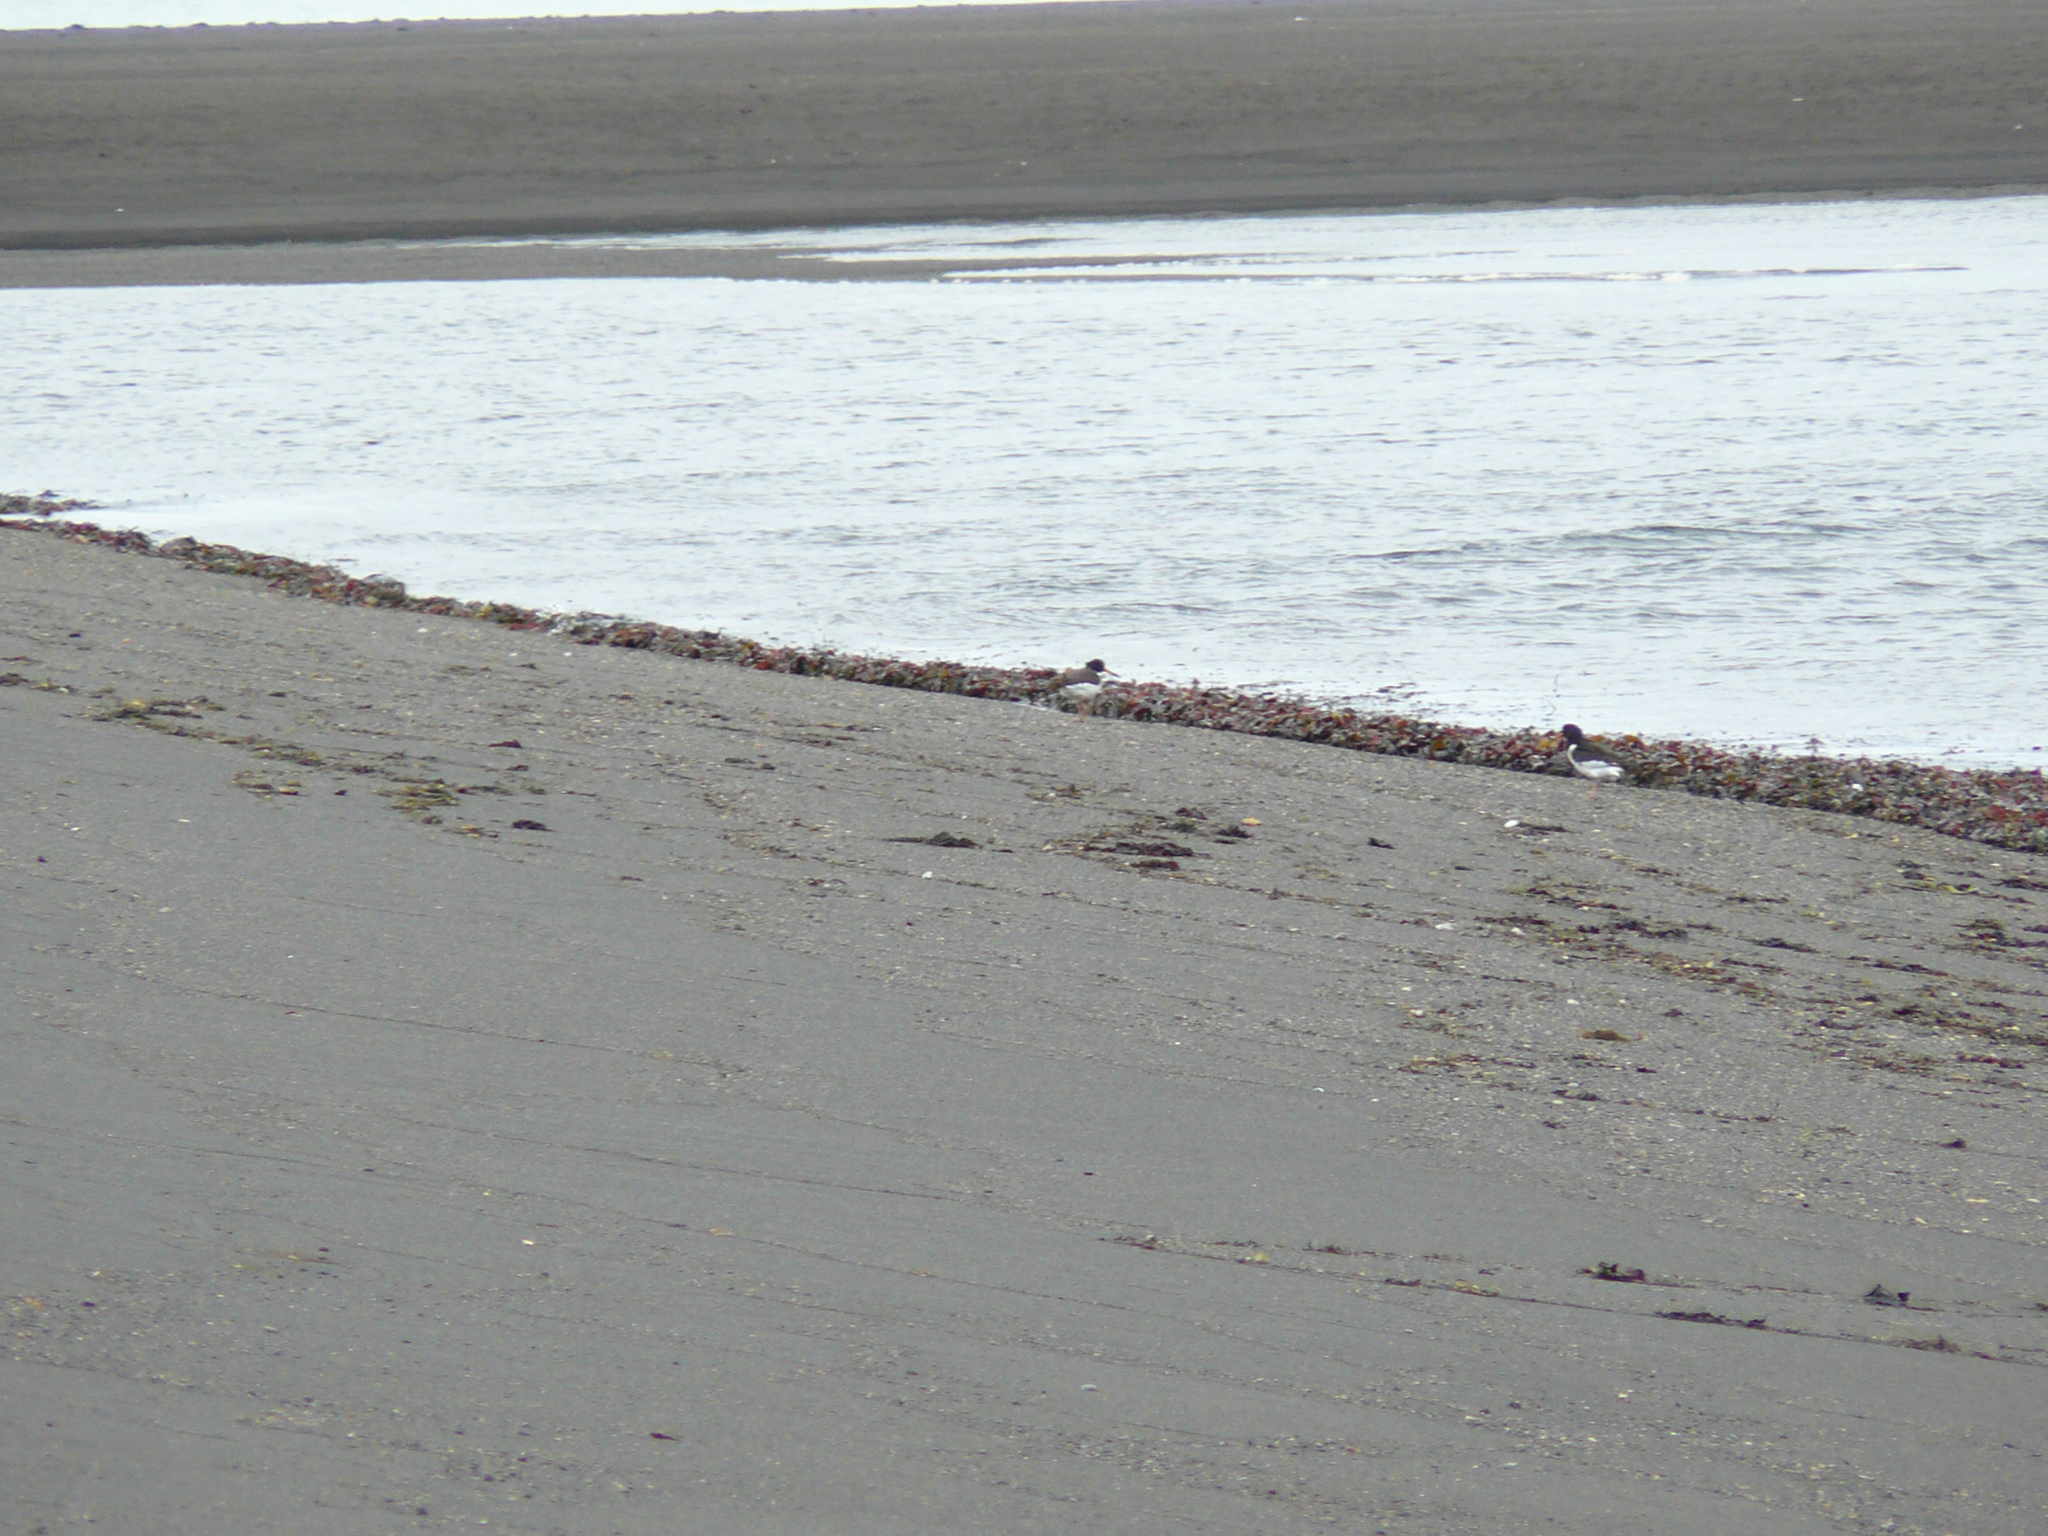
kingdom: Animalia
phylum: Chordata
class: Aves
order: Charadriiformes
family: Haematopodidae
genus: Haematopus
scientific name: Haematopus ostralegus
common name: Eurasian oystercatcher
